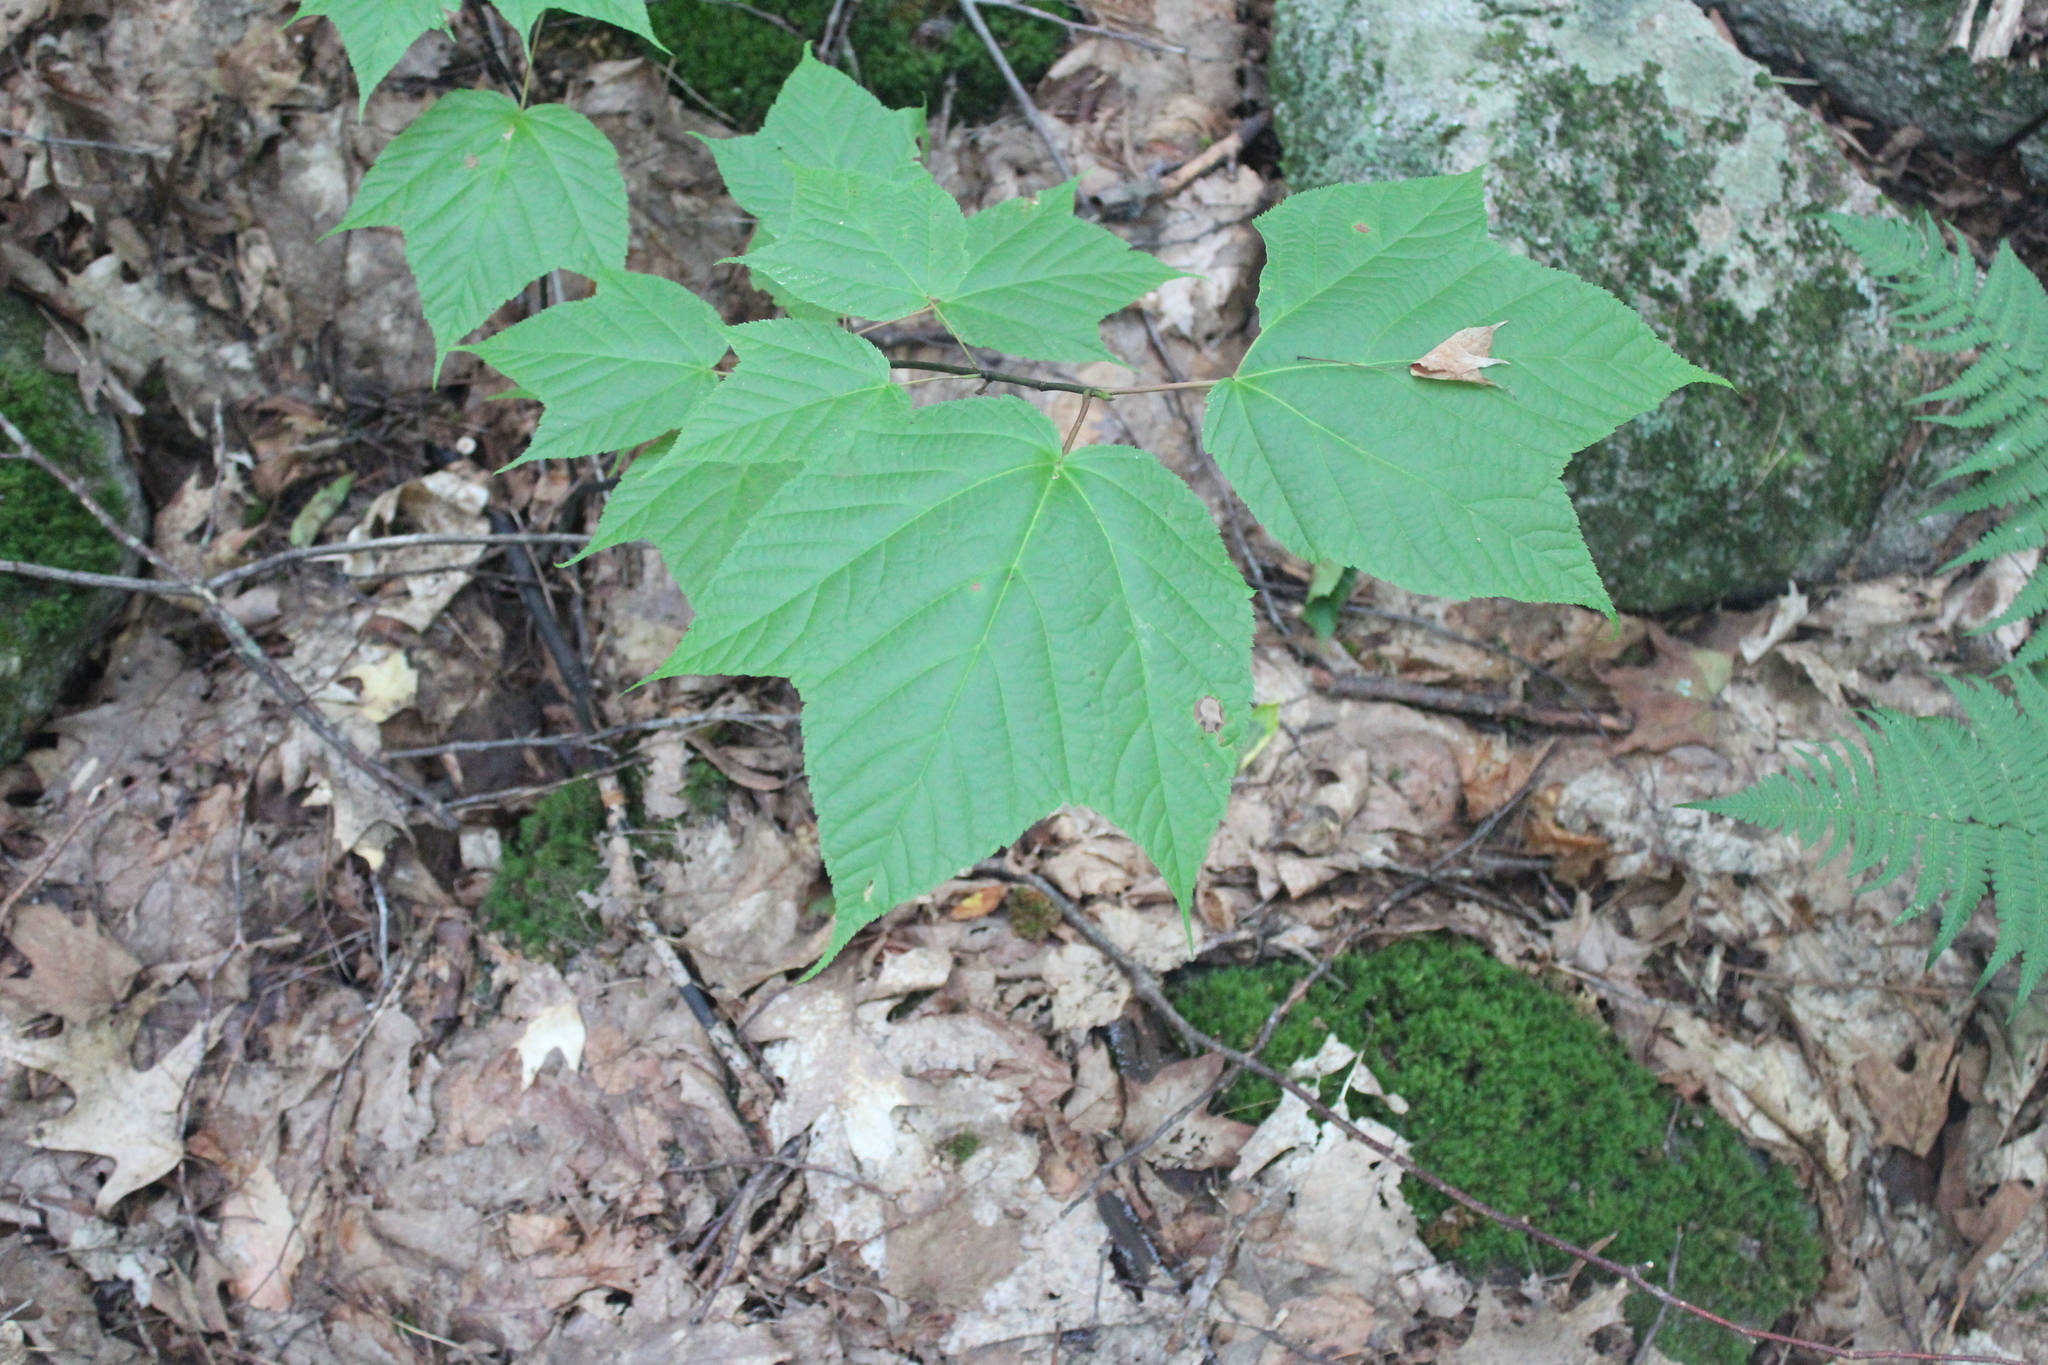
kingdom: Plantae
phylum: Tracheophyta
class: Magnoliopsida
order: Sapindales
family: Sapindaceae
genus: Acer
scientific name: Acer pensylvanicum
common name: Moosewood
